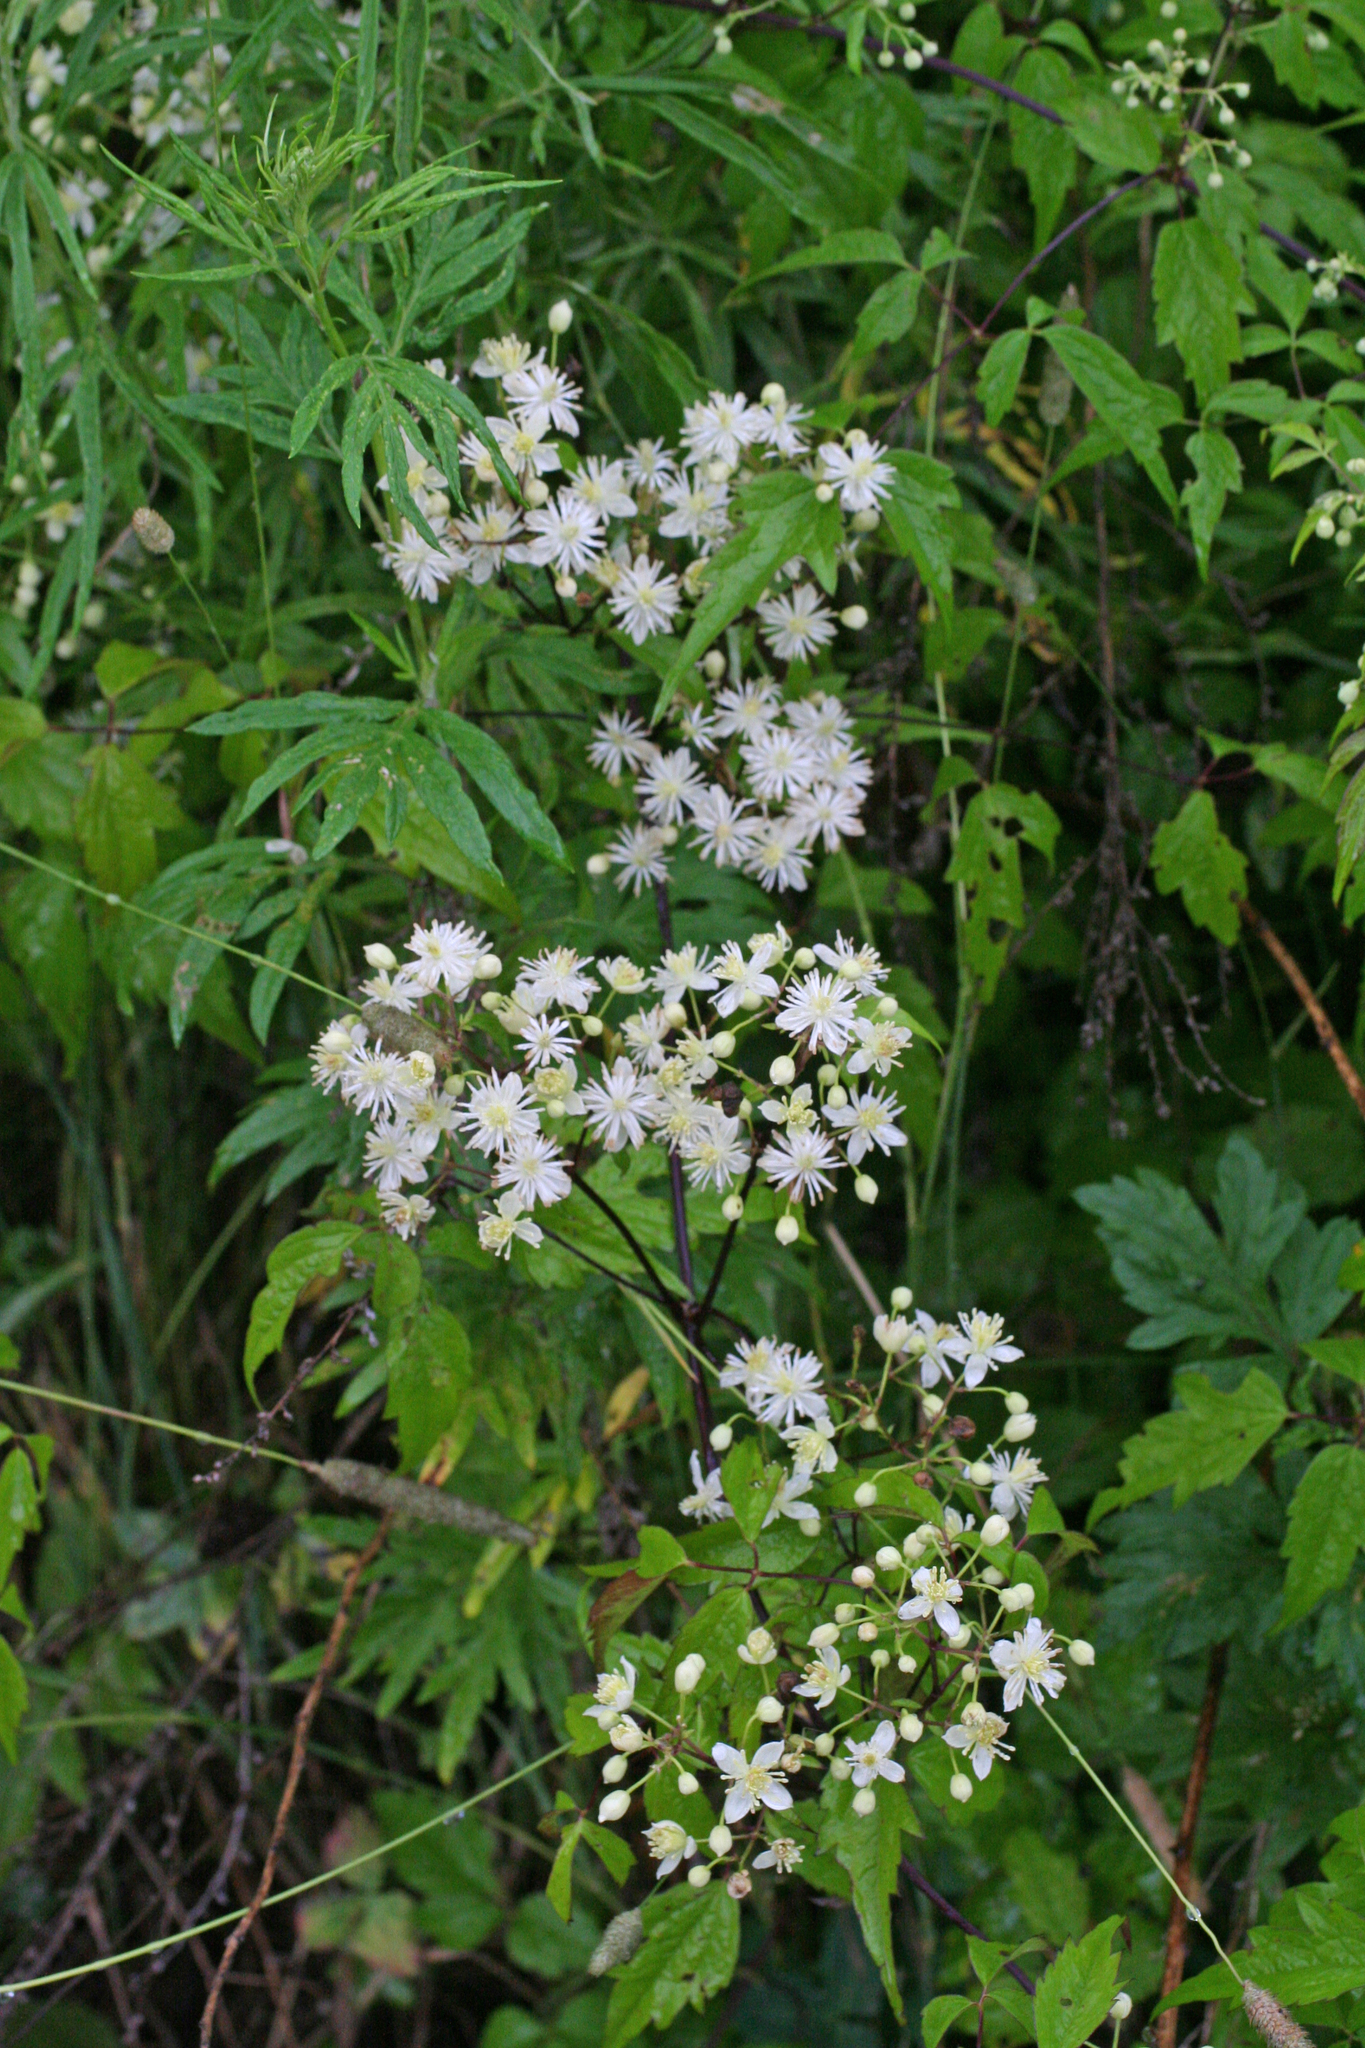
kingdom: Plantae
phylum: Tracheophyta
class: Magnoliopsida
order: Ranunculales
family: Ranunculaceae
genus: Clematis
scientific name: Clematis brevicaudata
